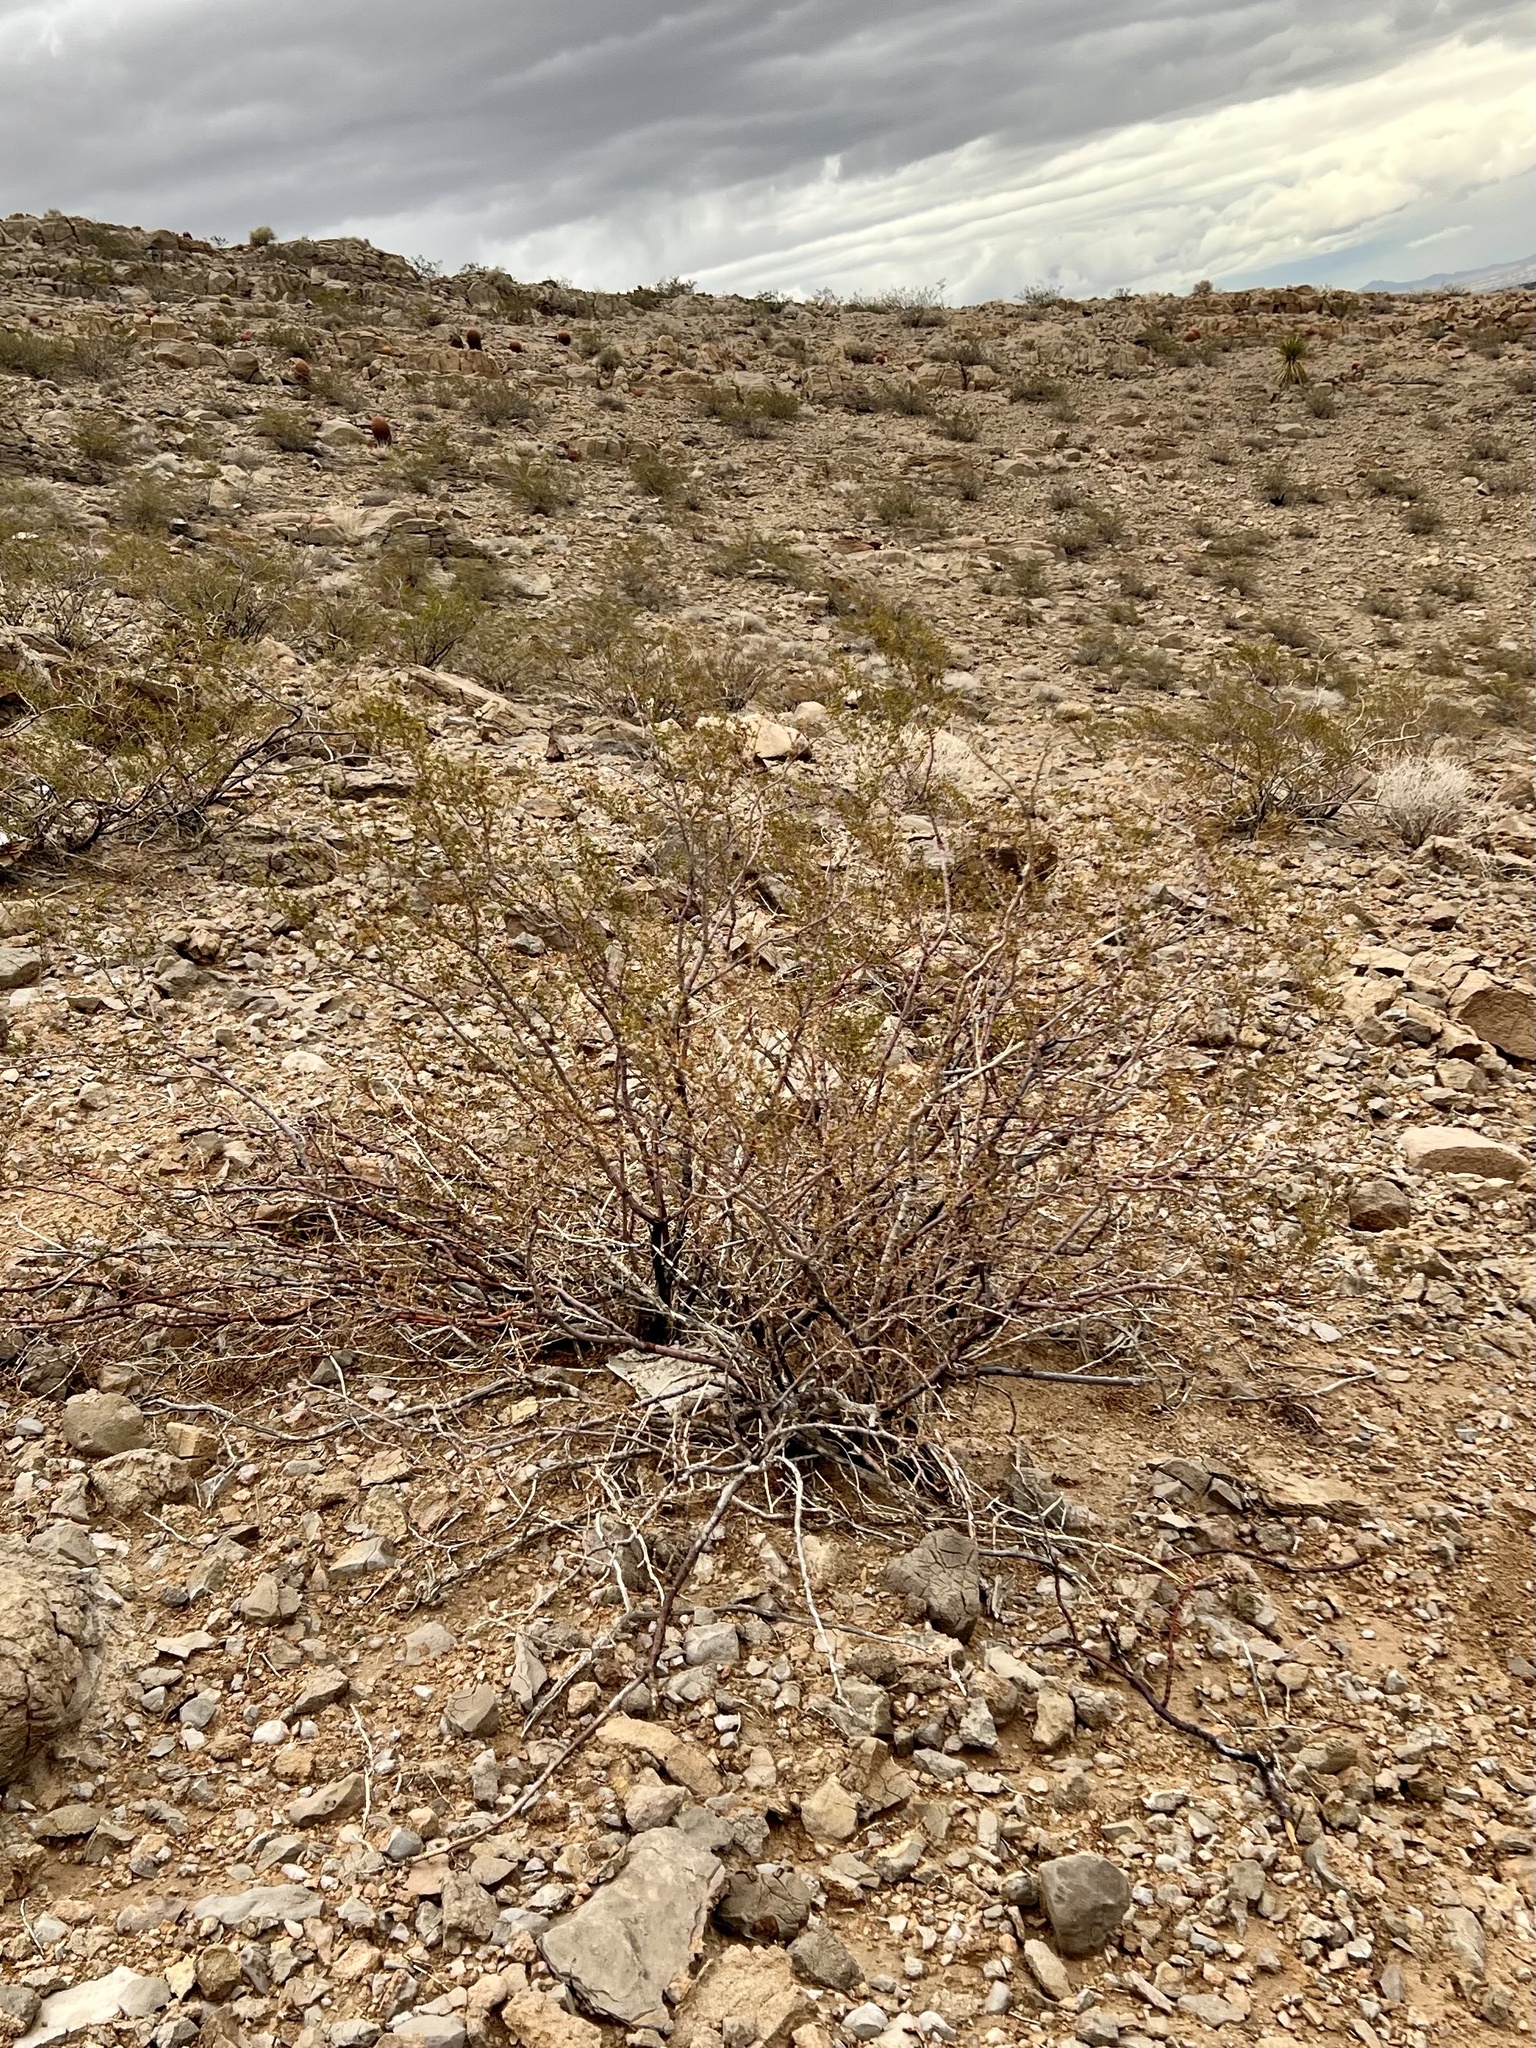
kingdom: Plantae
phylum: Tracheophyta
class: Magnoliopsida
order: Zygophyllales
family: Zygophyllaceae
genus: Larrea
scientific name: Larrea tridentata
